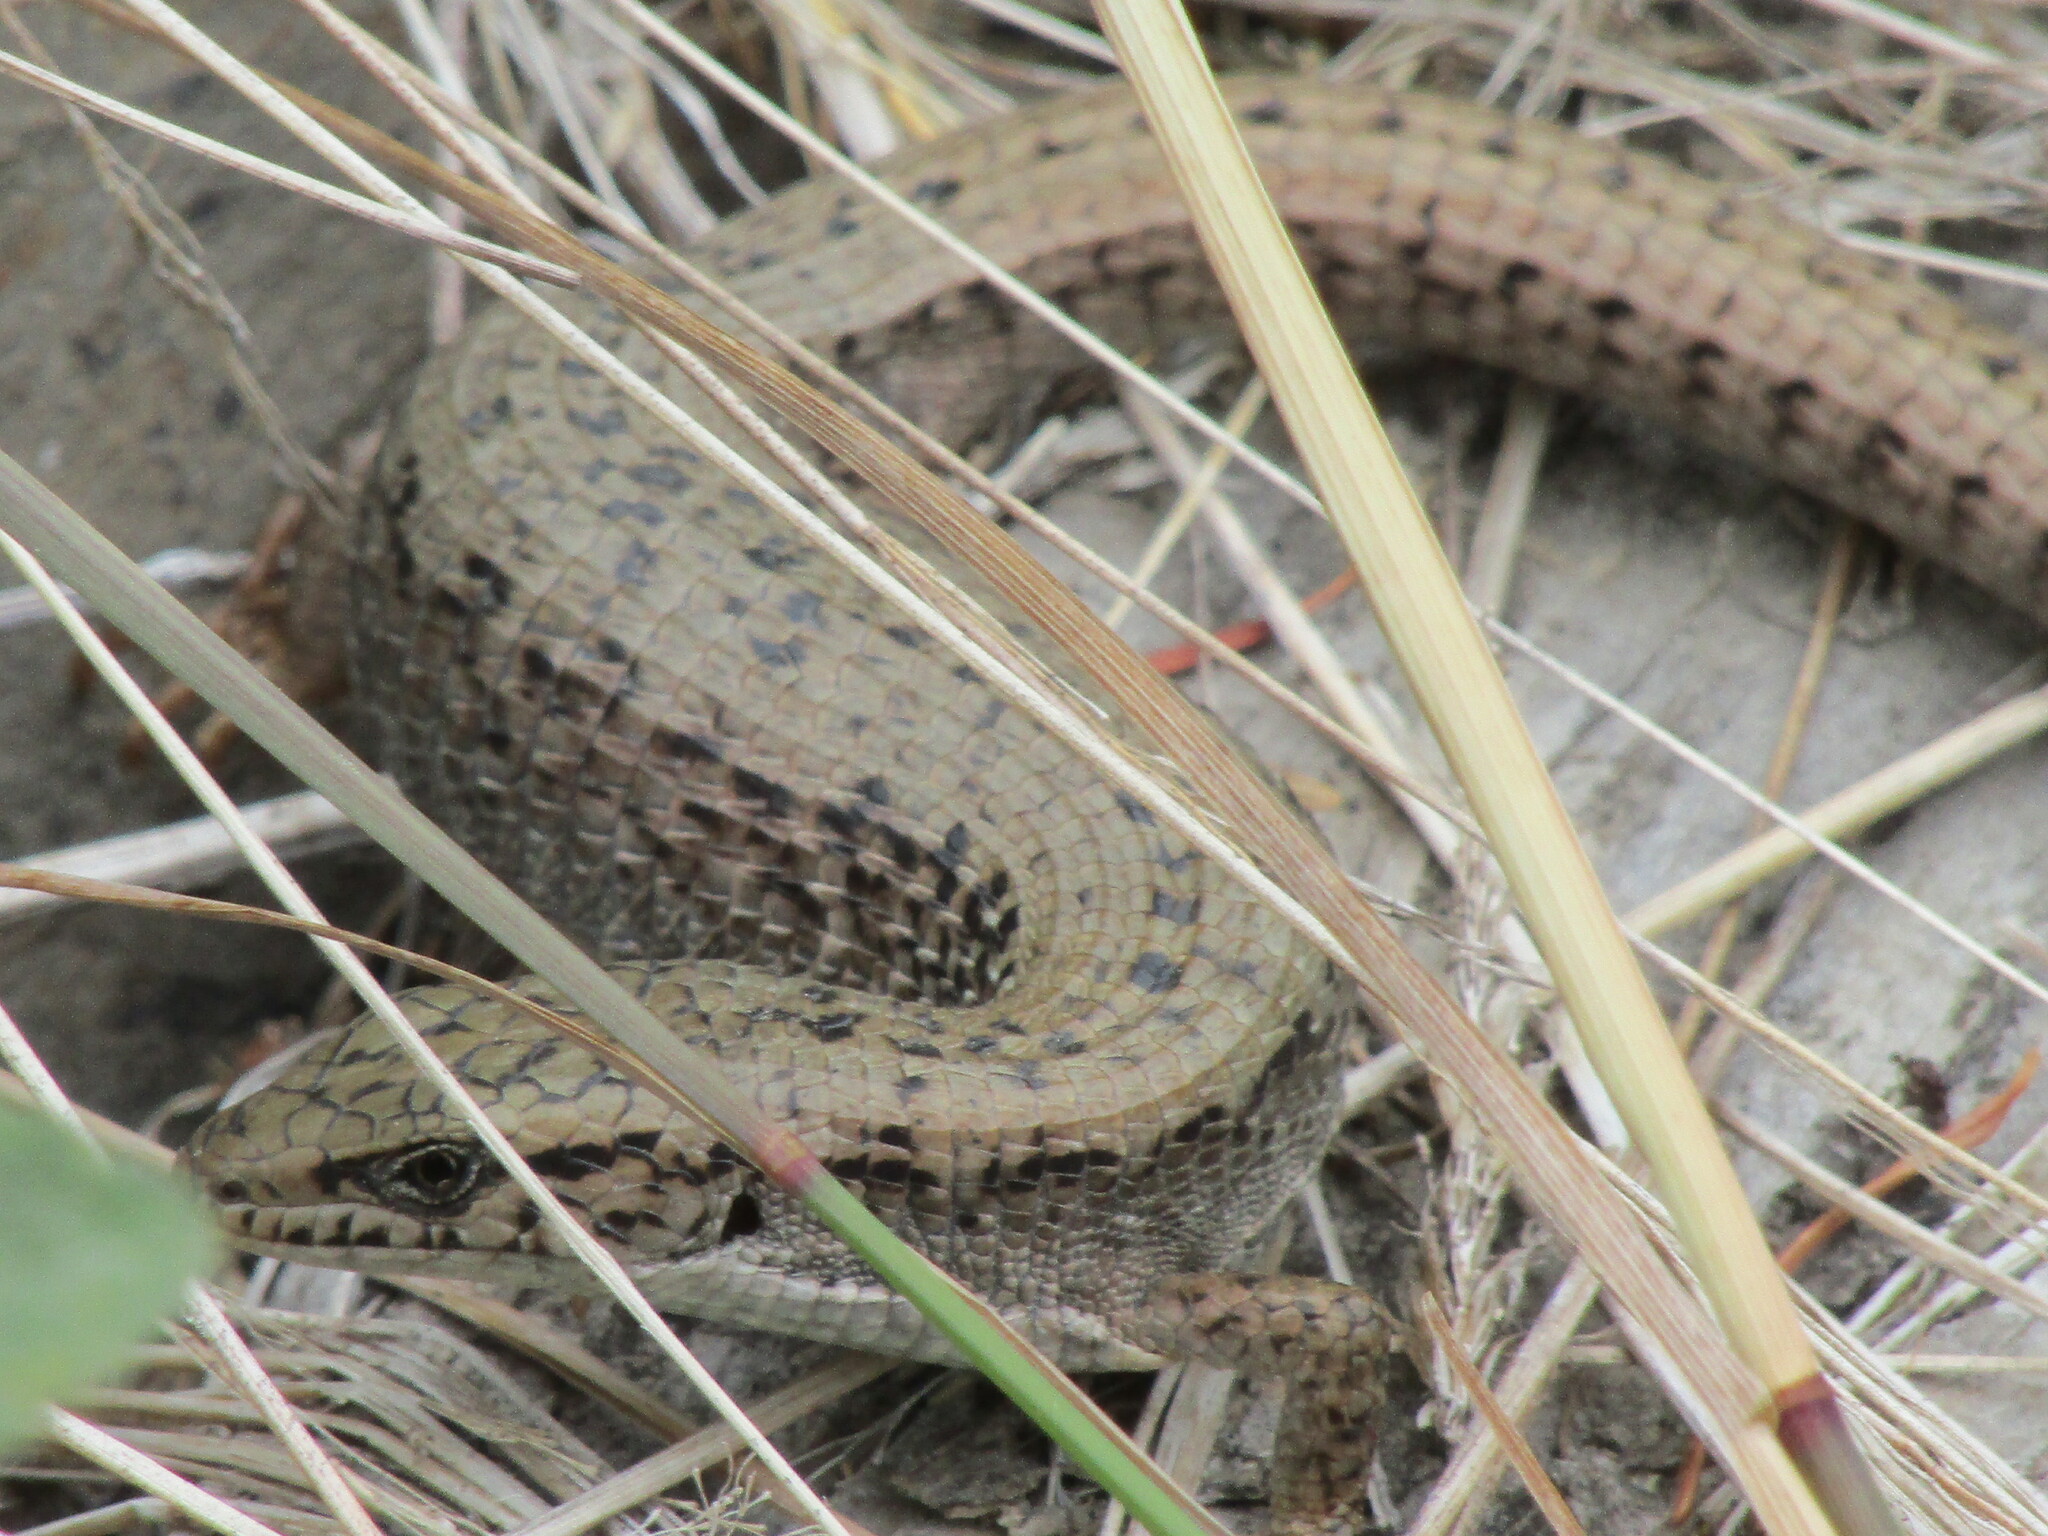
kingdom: Animalia
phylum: Chordata
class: Squamata
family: Anguidae
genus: Elgaria
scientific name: Elgaria coerulea
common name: Northern alligator lizard
